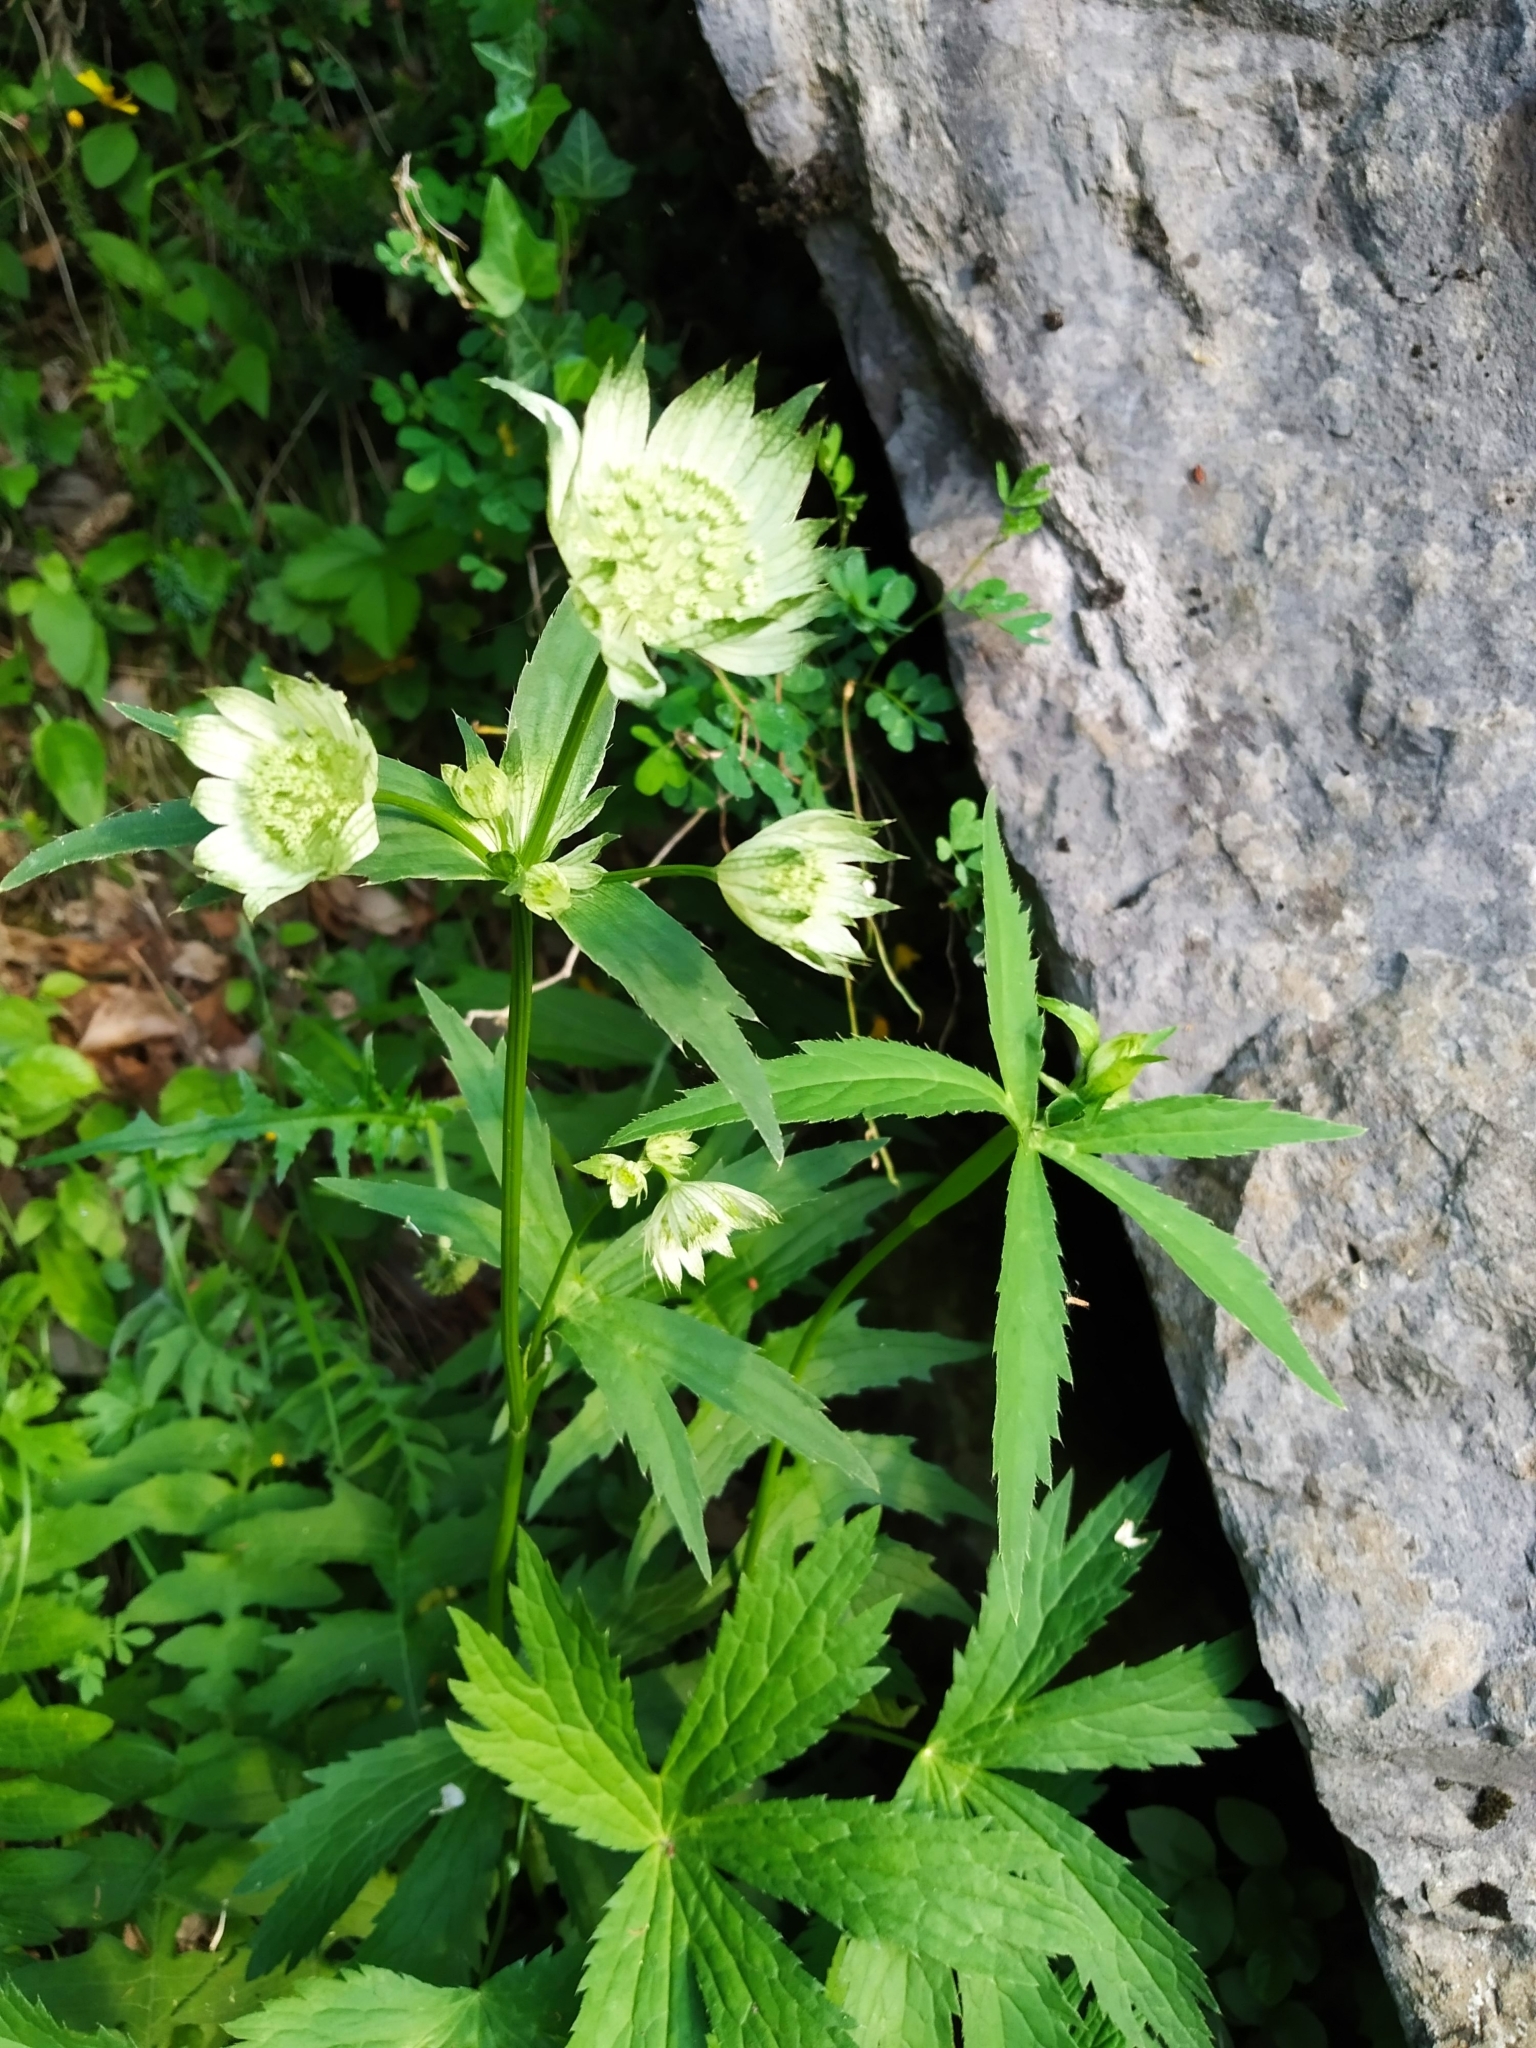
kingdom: Plantae
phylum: Tracheophyta
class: Magnoliopsida
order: Apiales
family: Apiaceae
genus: Astrantia
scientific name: Astrantia major
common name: Greater masterwort
